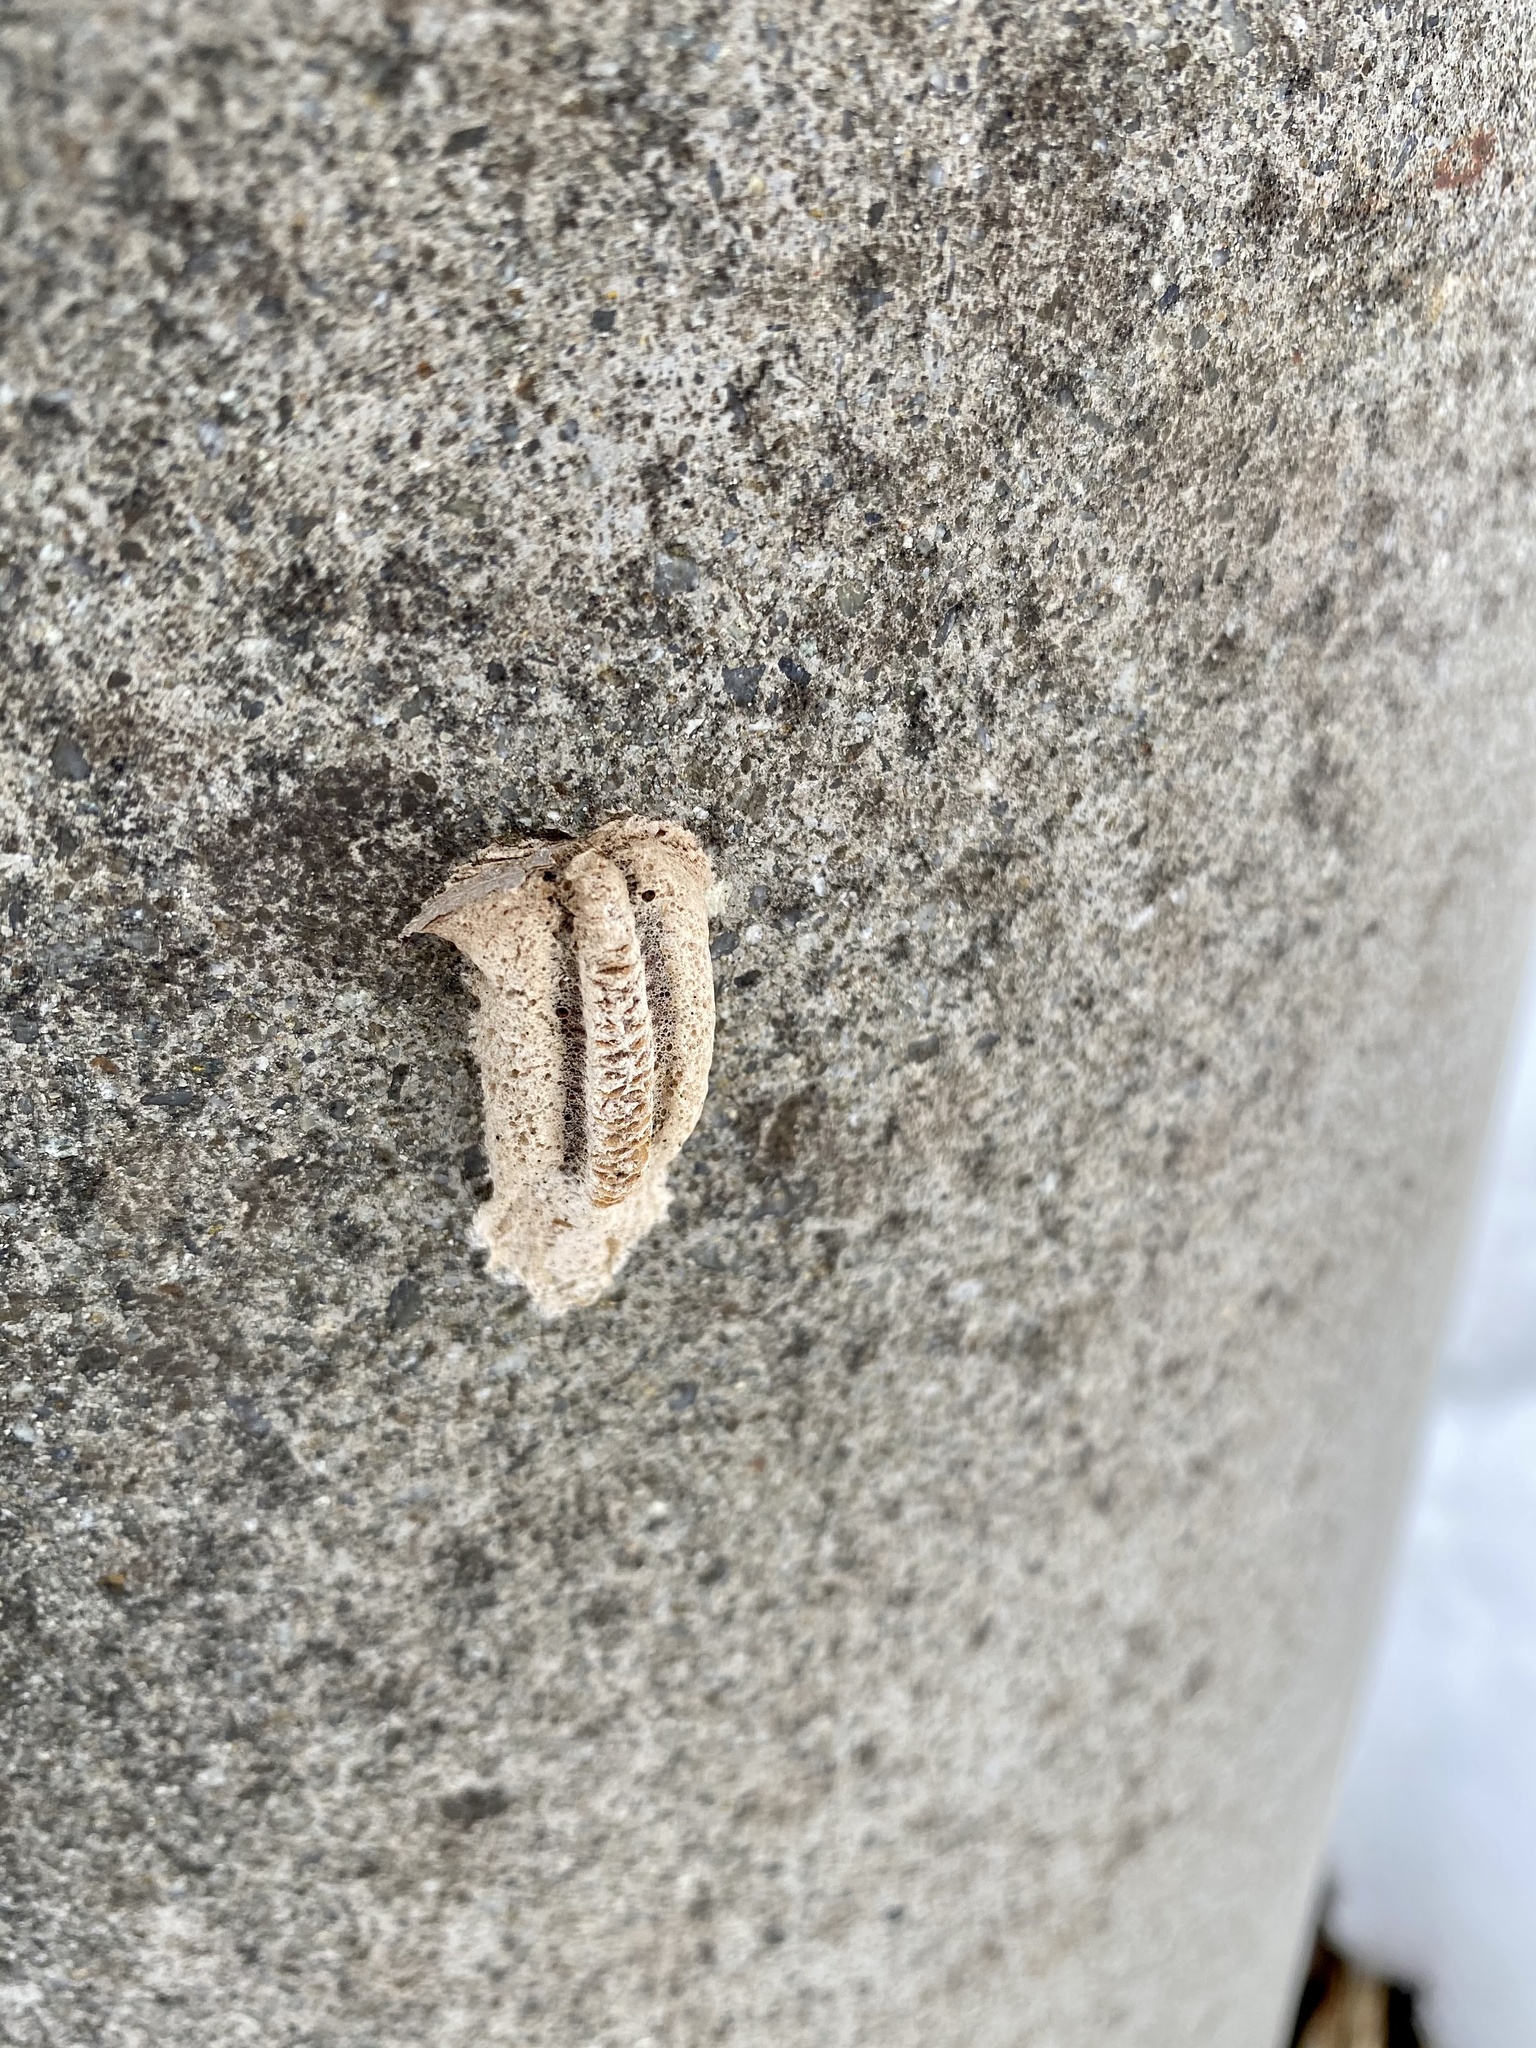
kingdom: Animalia
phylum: Arthropoda
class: Insecta
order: Mantodea
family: Mantidae
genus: Tenodera
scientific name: Tenodera angustipennis
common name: Asian mantis
